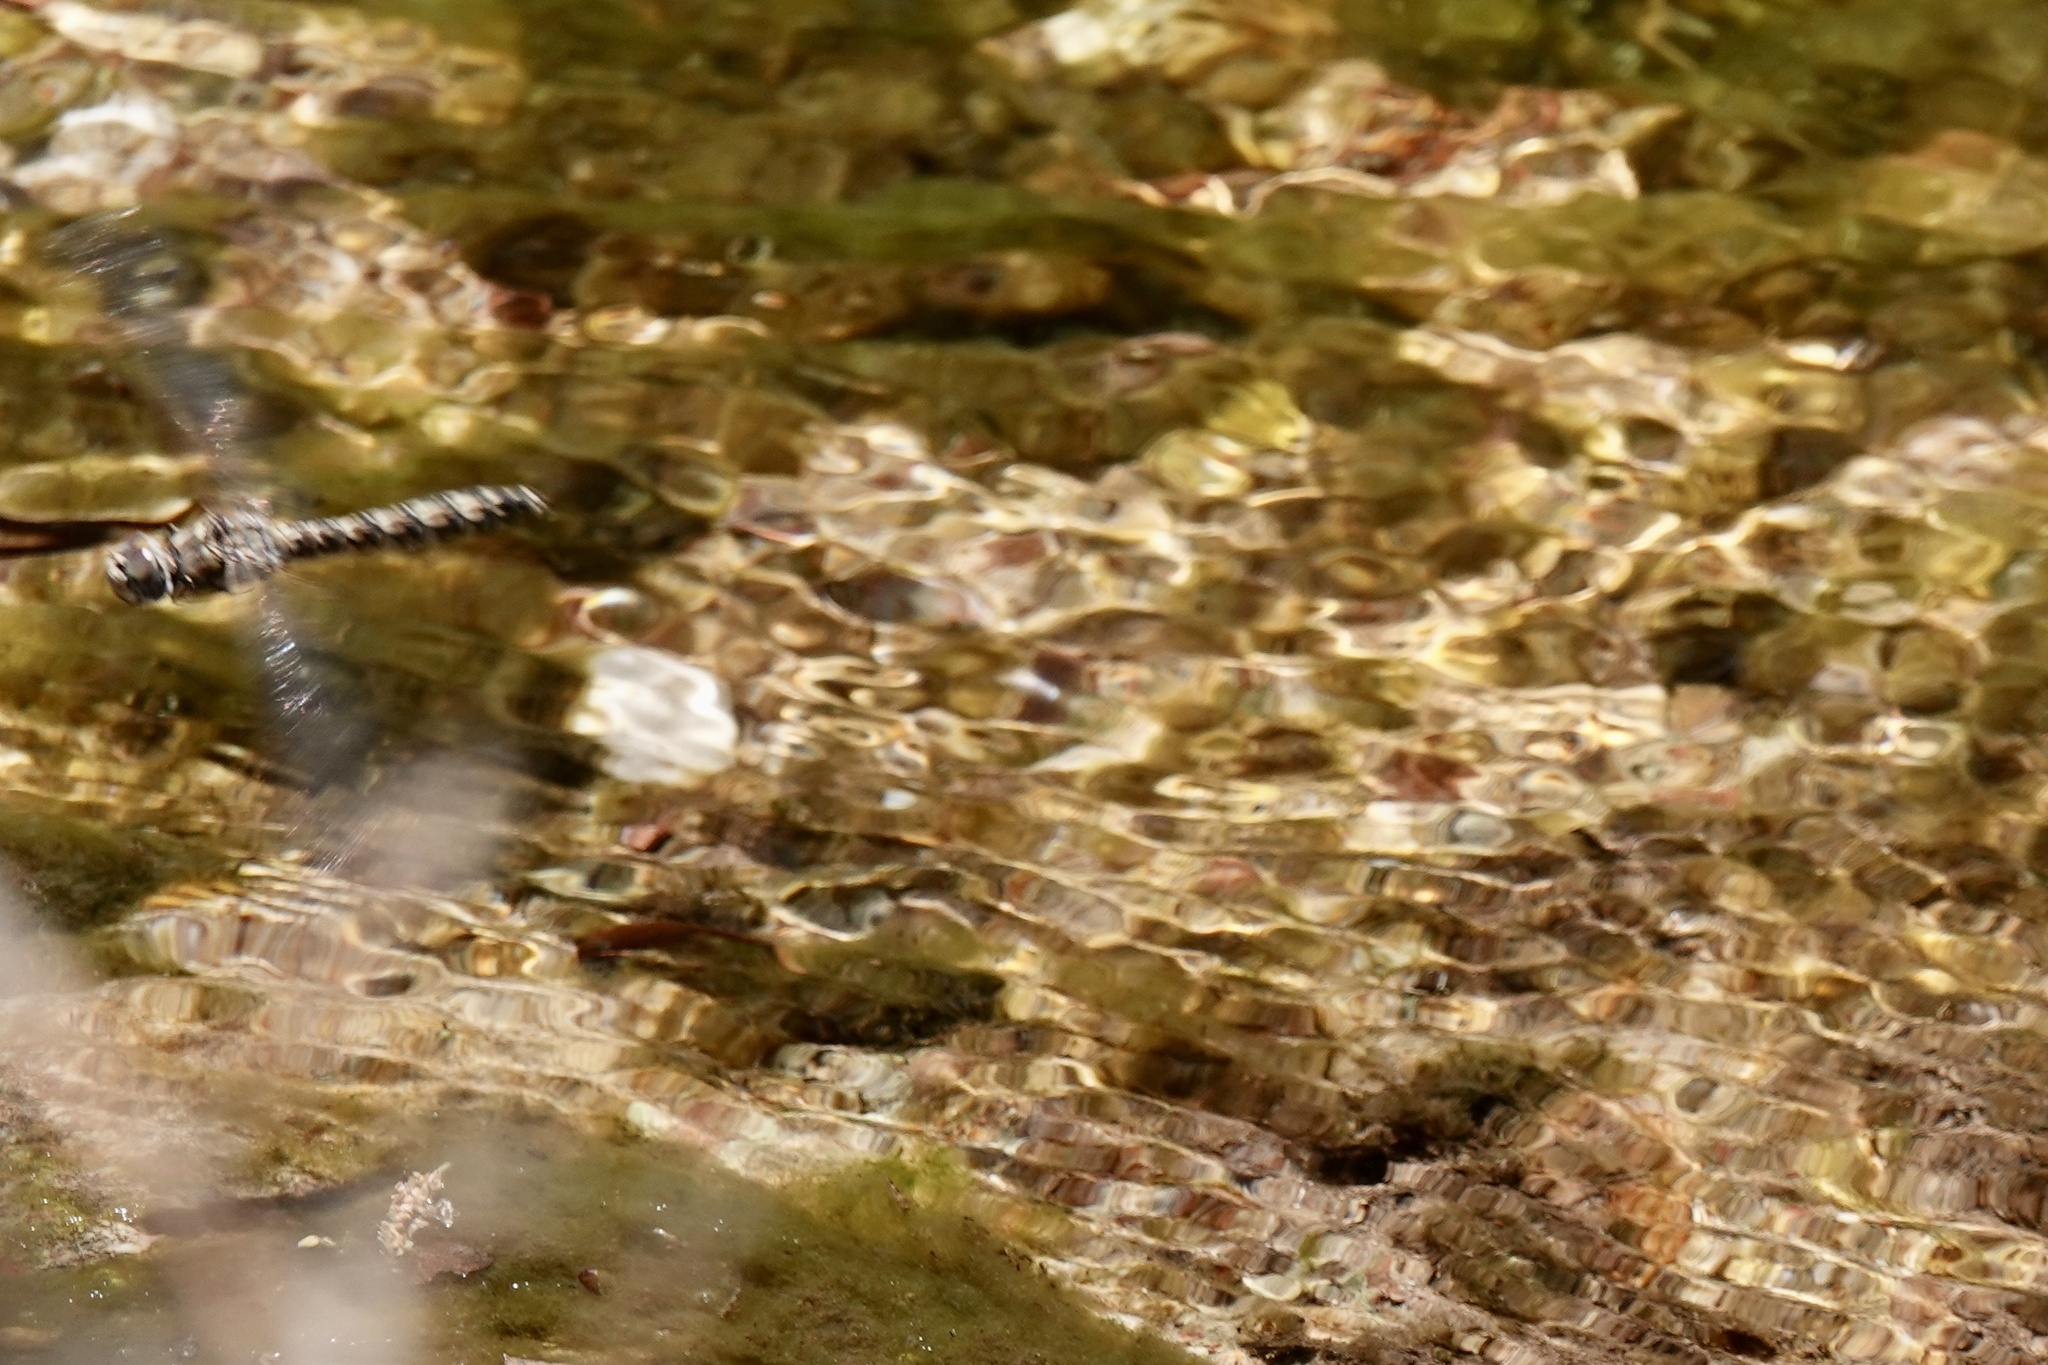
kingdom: Animalia
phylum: Arthropoda
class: Insecta
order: Odonata
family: Libellulidae
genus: Paltothemis
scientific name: Paltothemis lineatipes
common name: Red rock skimmer
